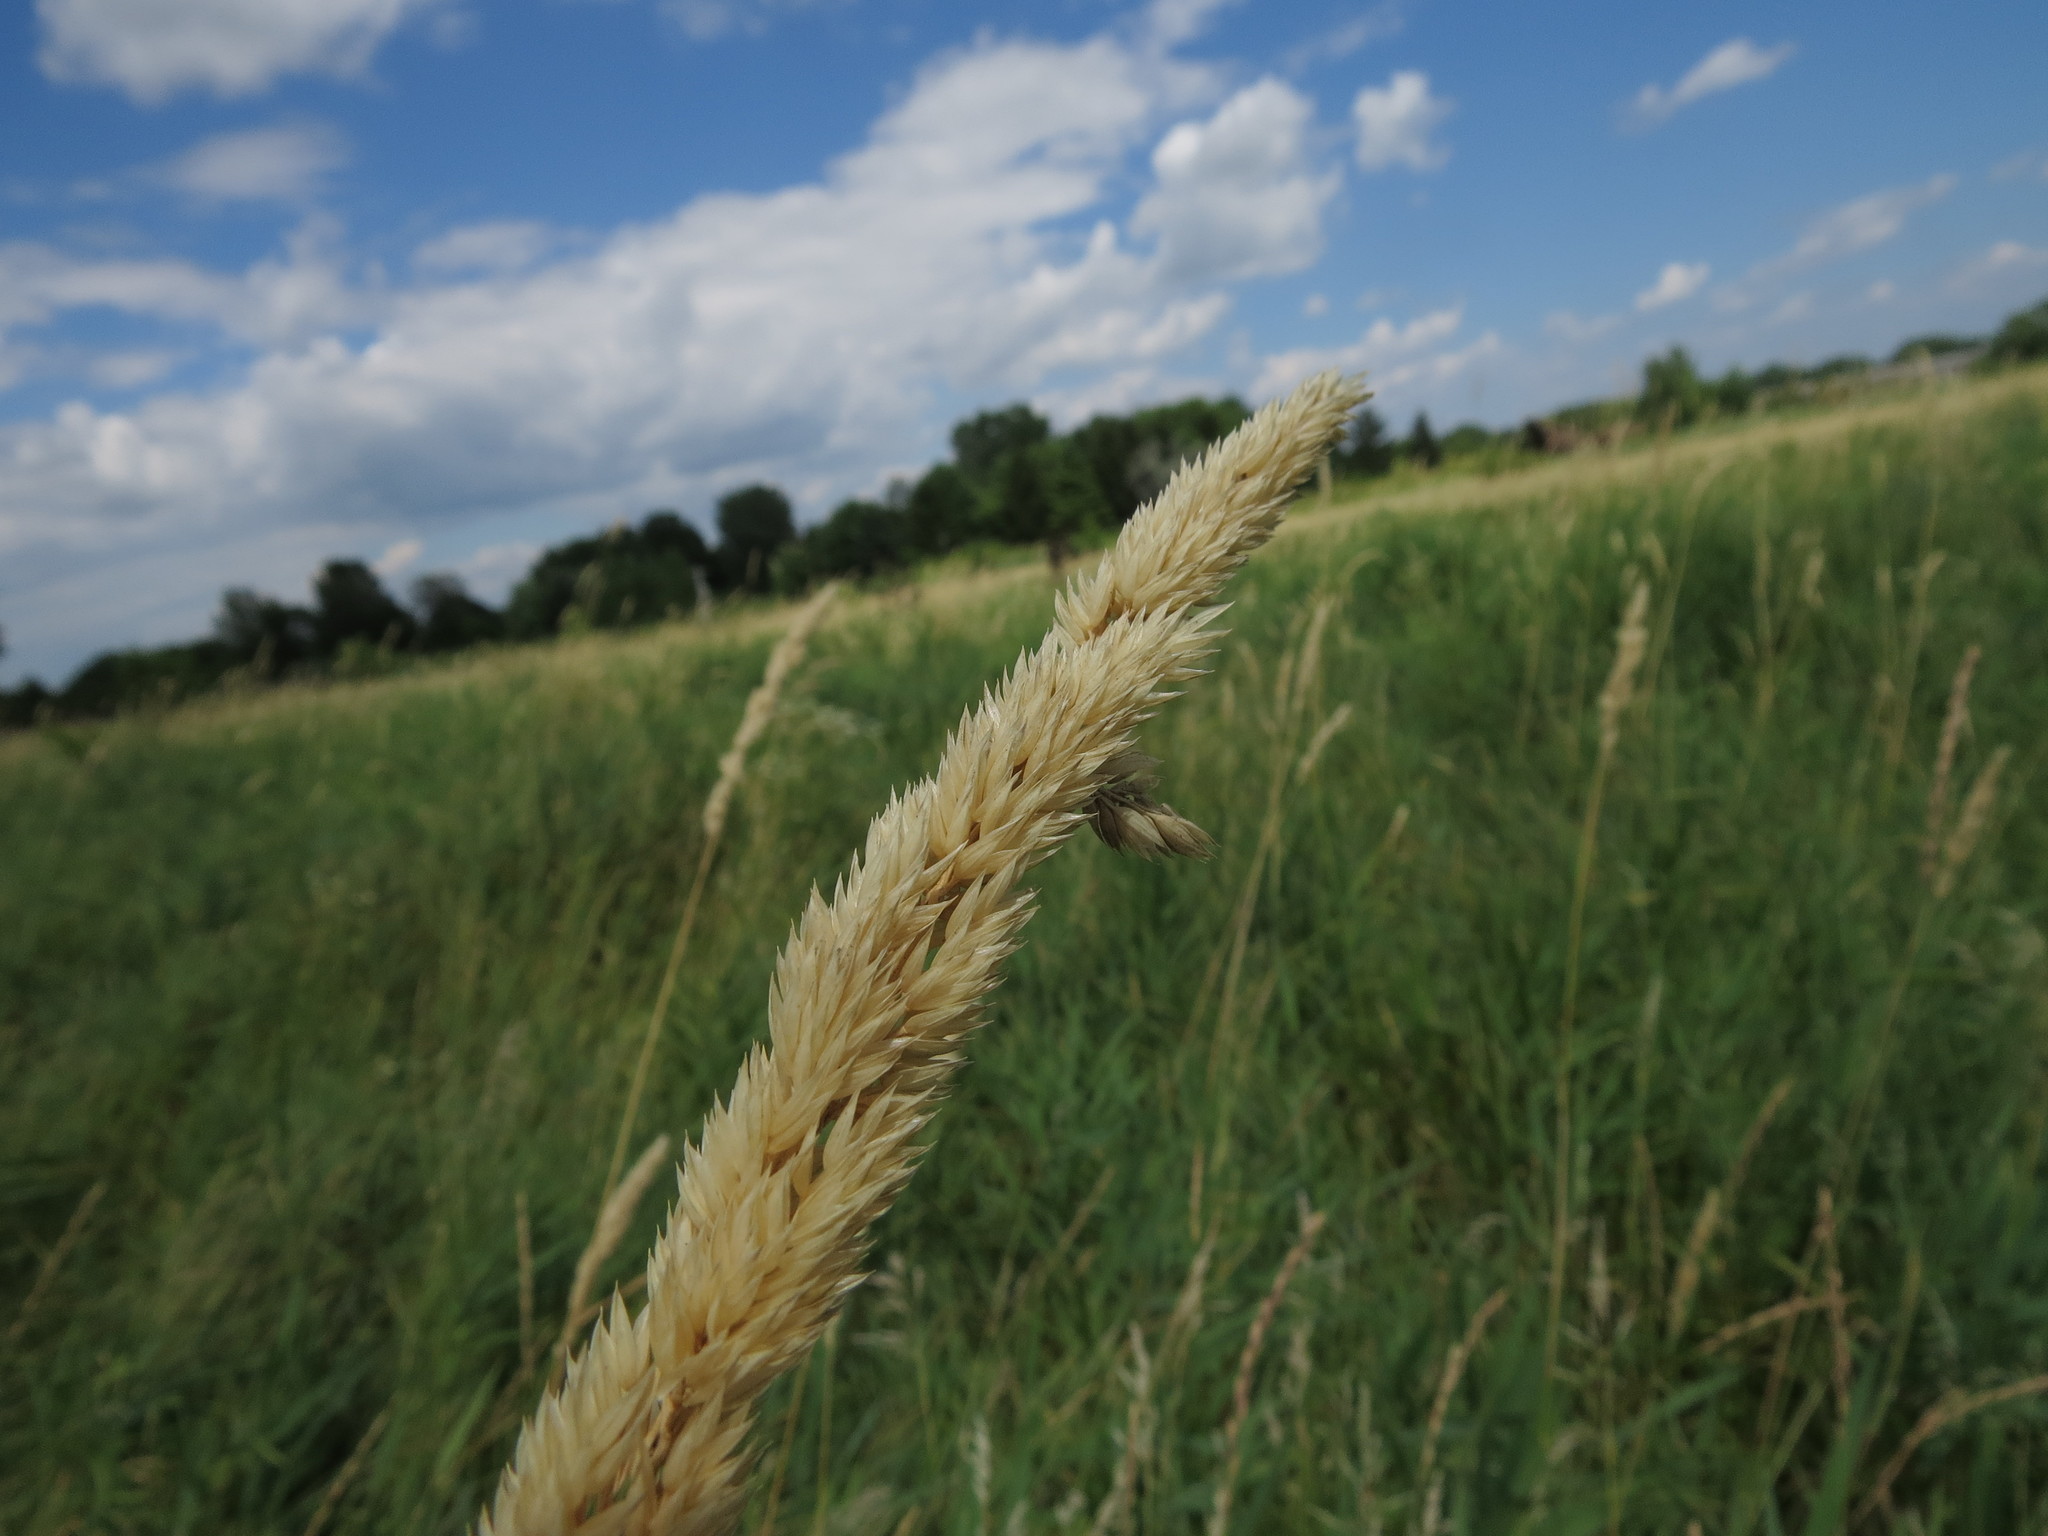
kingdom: Plantae
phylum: Tracheophyta
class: Liliopsida
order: Poales
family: Poaceae
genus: Phalaris
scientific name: Phalaris arundinacea
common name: Reed canary-grass
